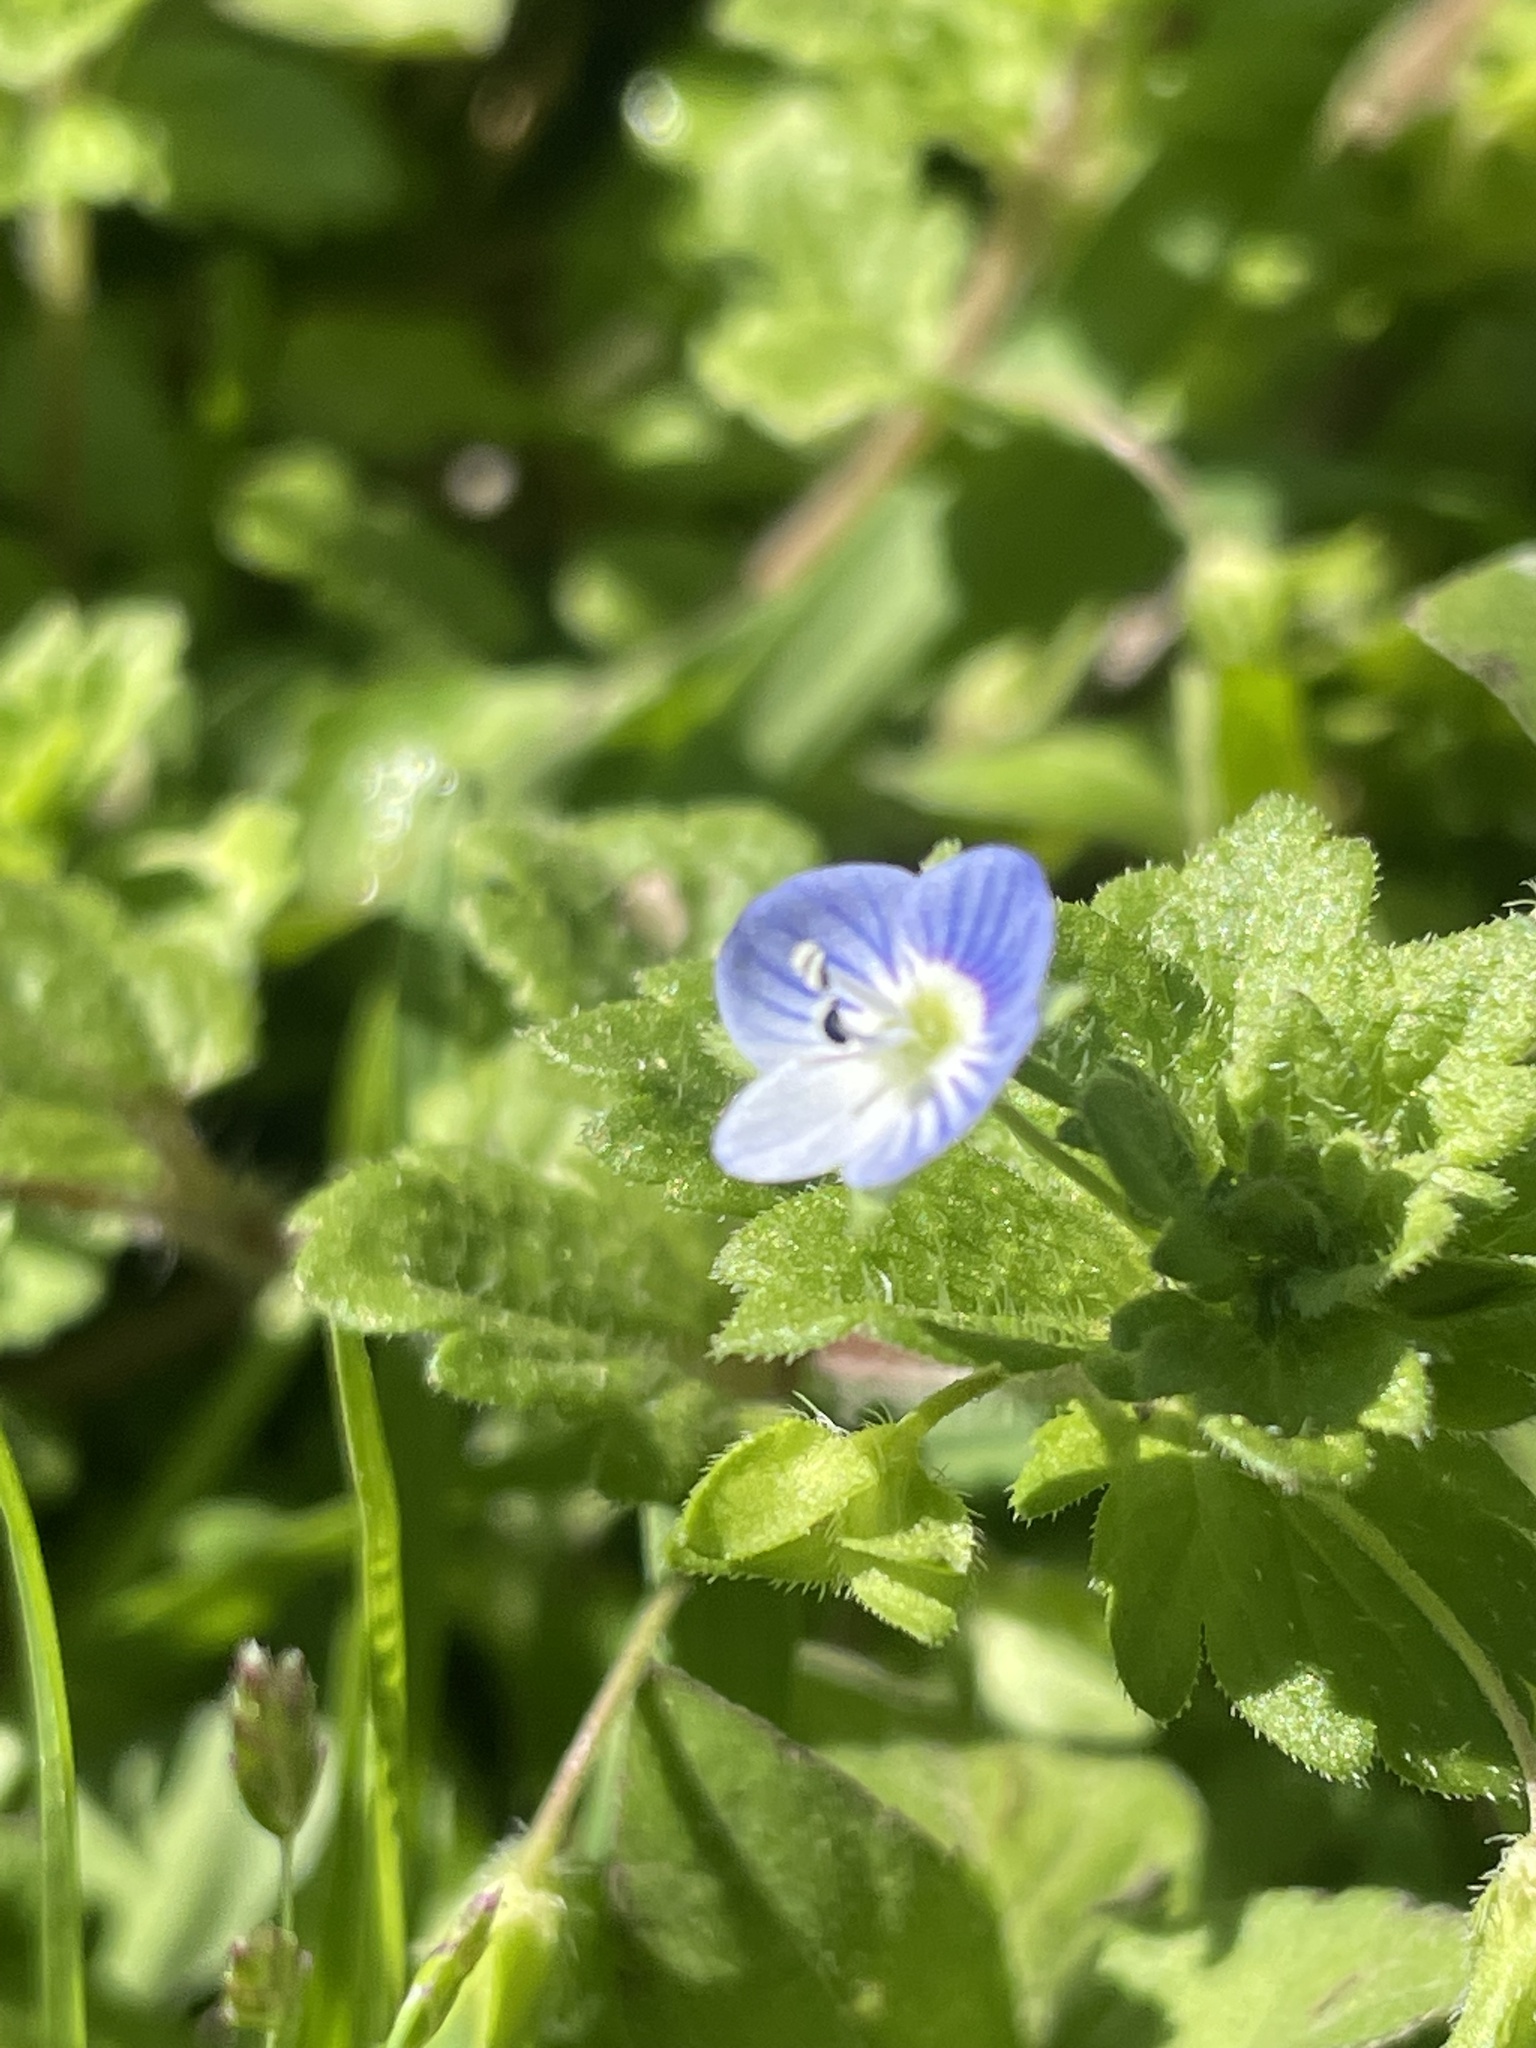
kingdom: Plantae
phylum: Tracheophyta
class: Magnoliopsida
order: Lamiales
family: Plantaginaceae
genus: Veronica
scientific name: Veronica persica
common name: Common field-speedwell
